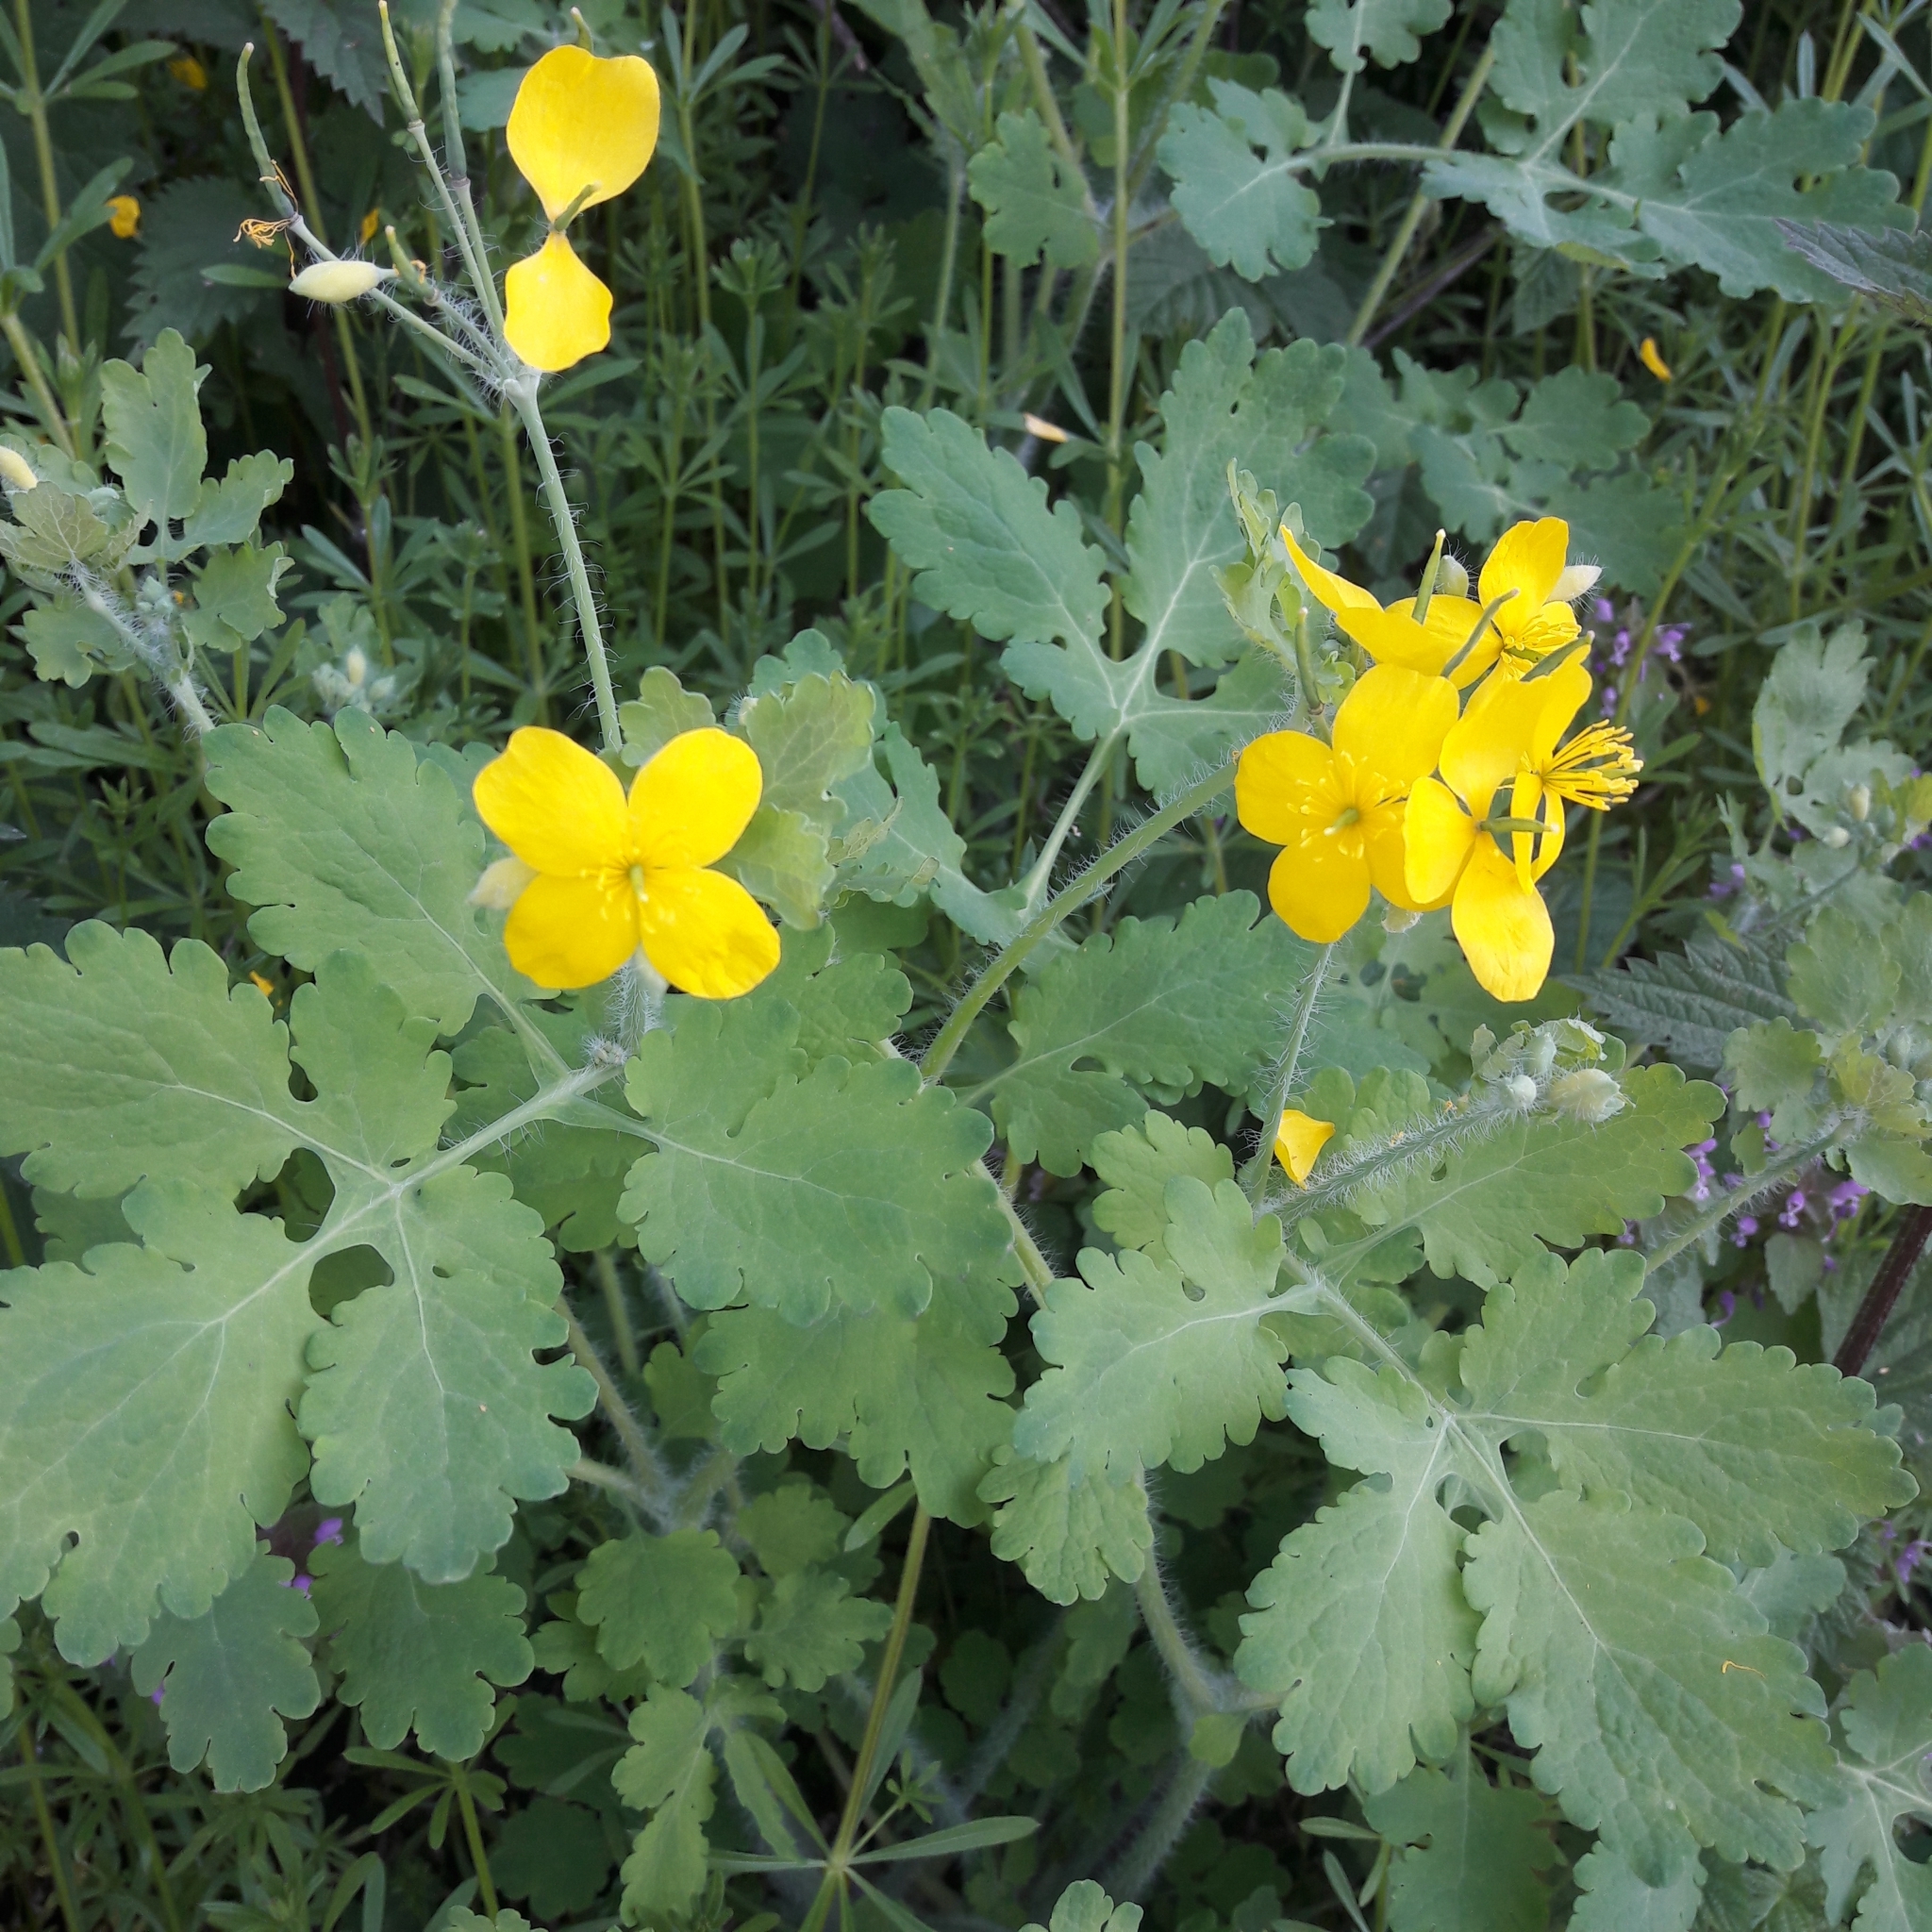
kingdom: Plantae
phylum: Tracheophyta
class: Magnoliopsida
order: Ranunculales
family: Papaveraceae
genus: Chelidonium
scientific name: Chelidonium majus
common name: Greater celandine
